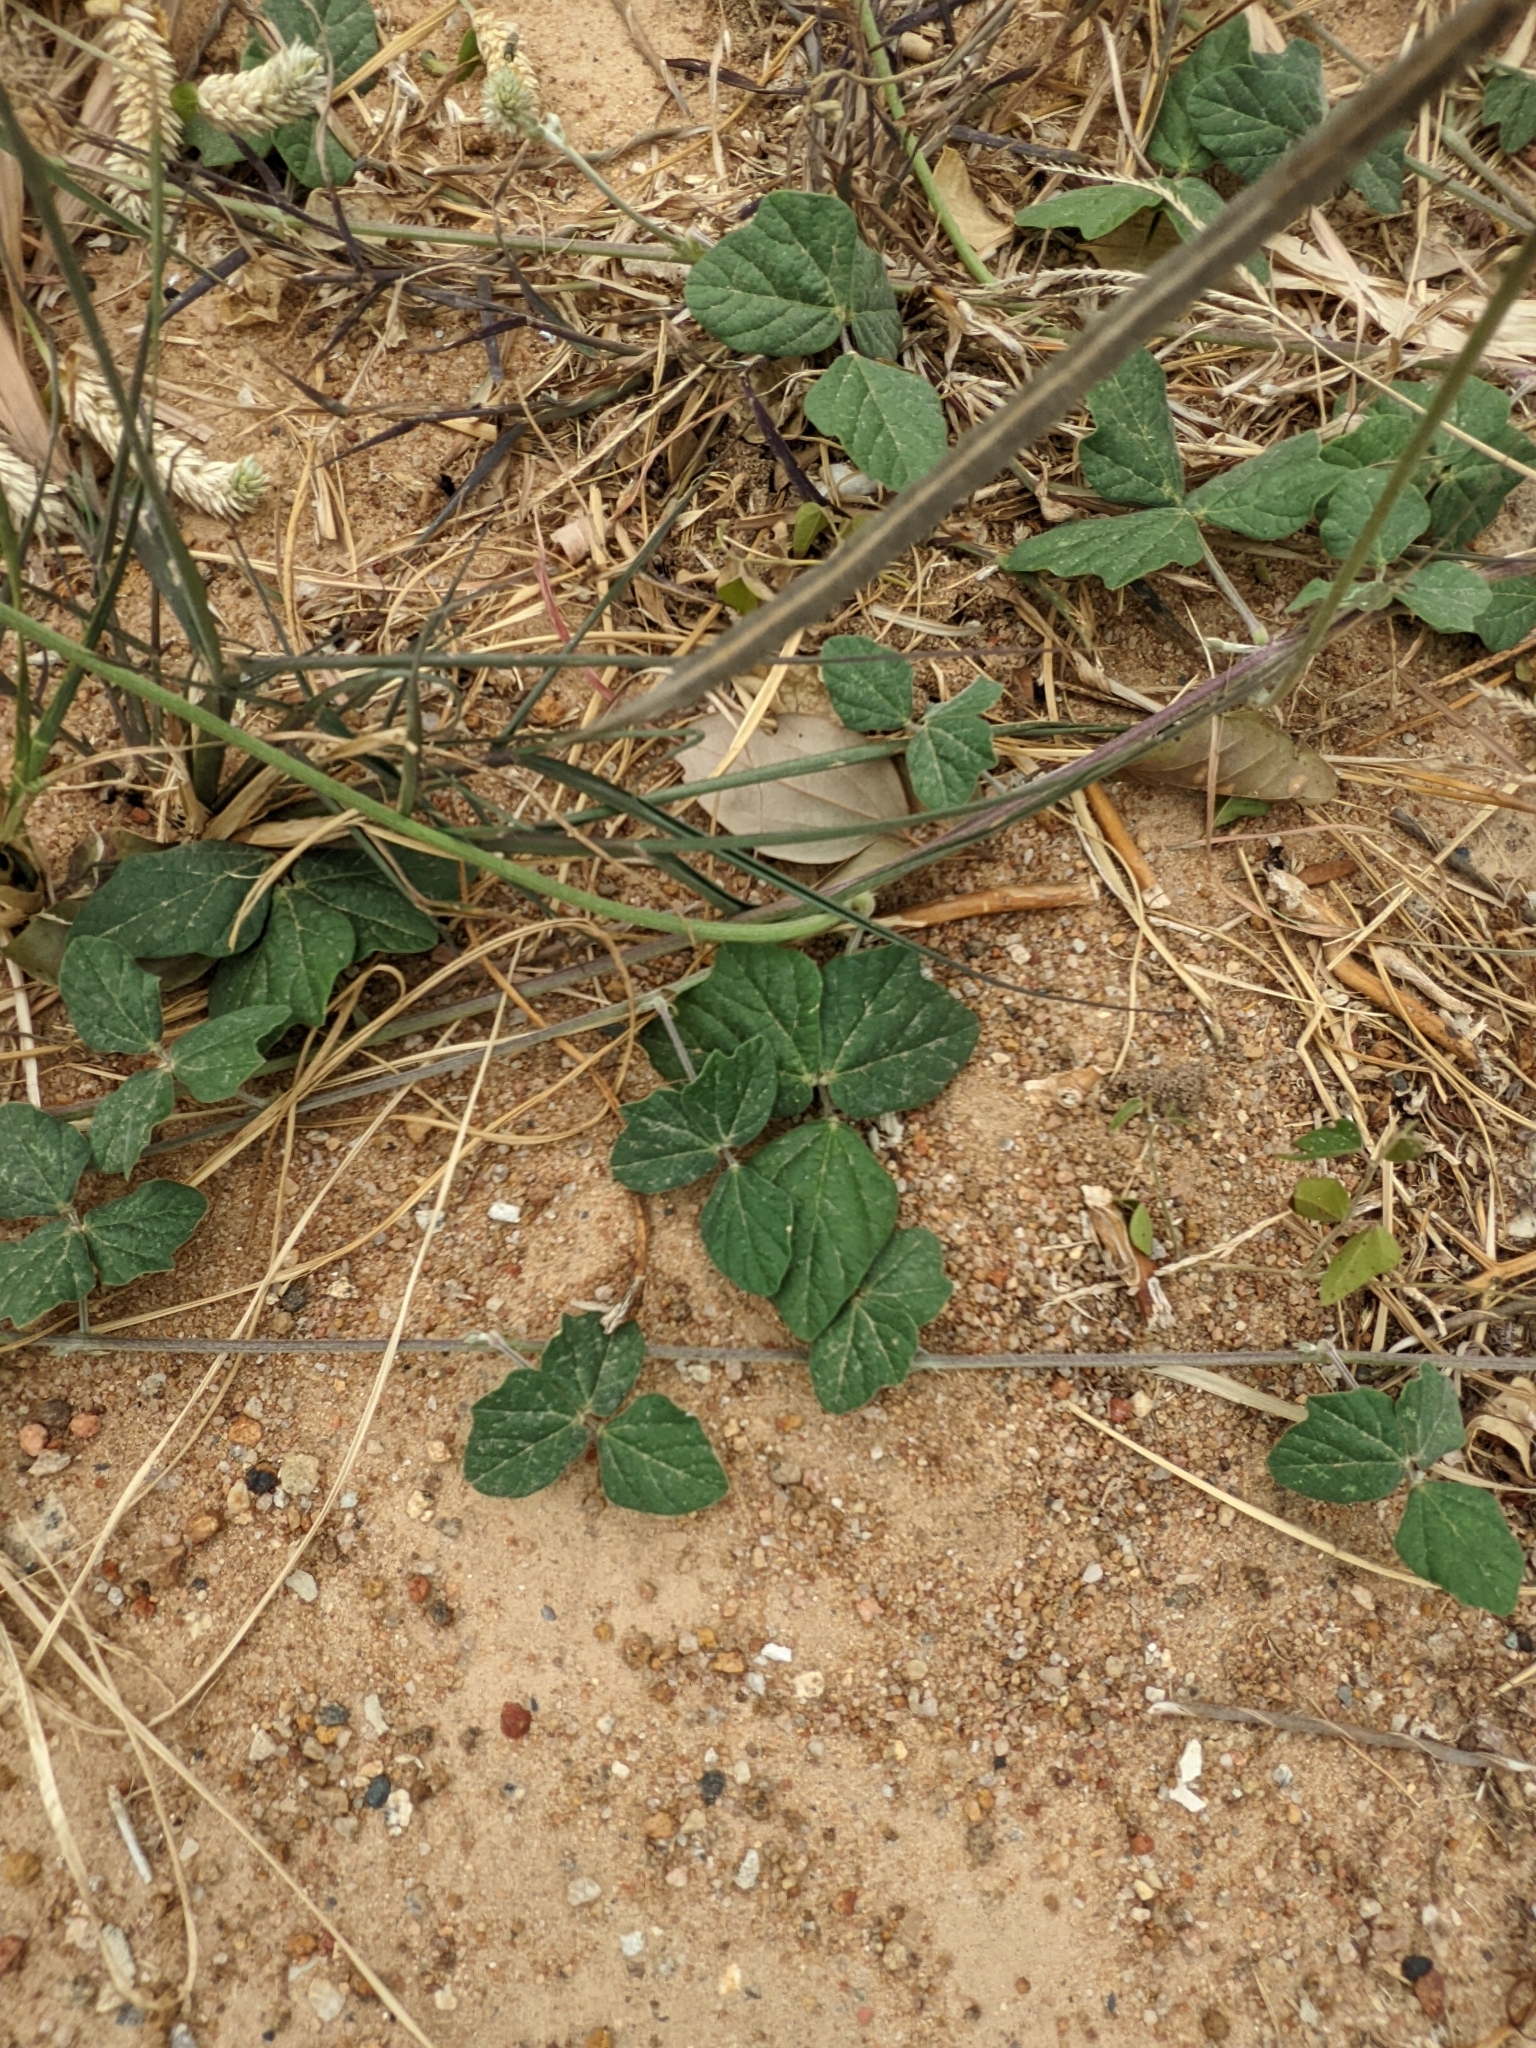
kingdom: Plantae
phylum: Tracheophyta
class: Magnoliopsida
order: Fabales
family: Fabaceae
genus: Macroptilium
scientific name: Macroptilium atropurpureum
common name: Purple bushbean
